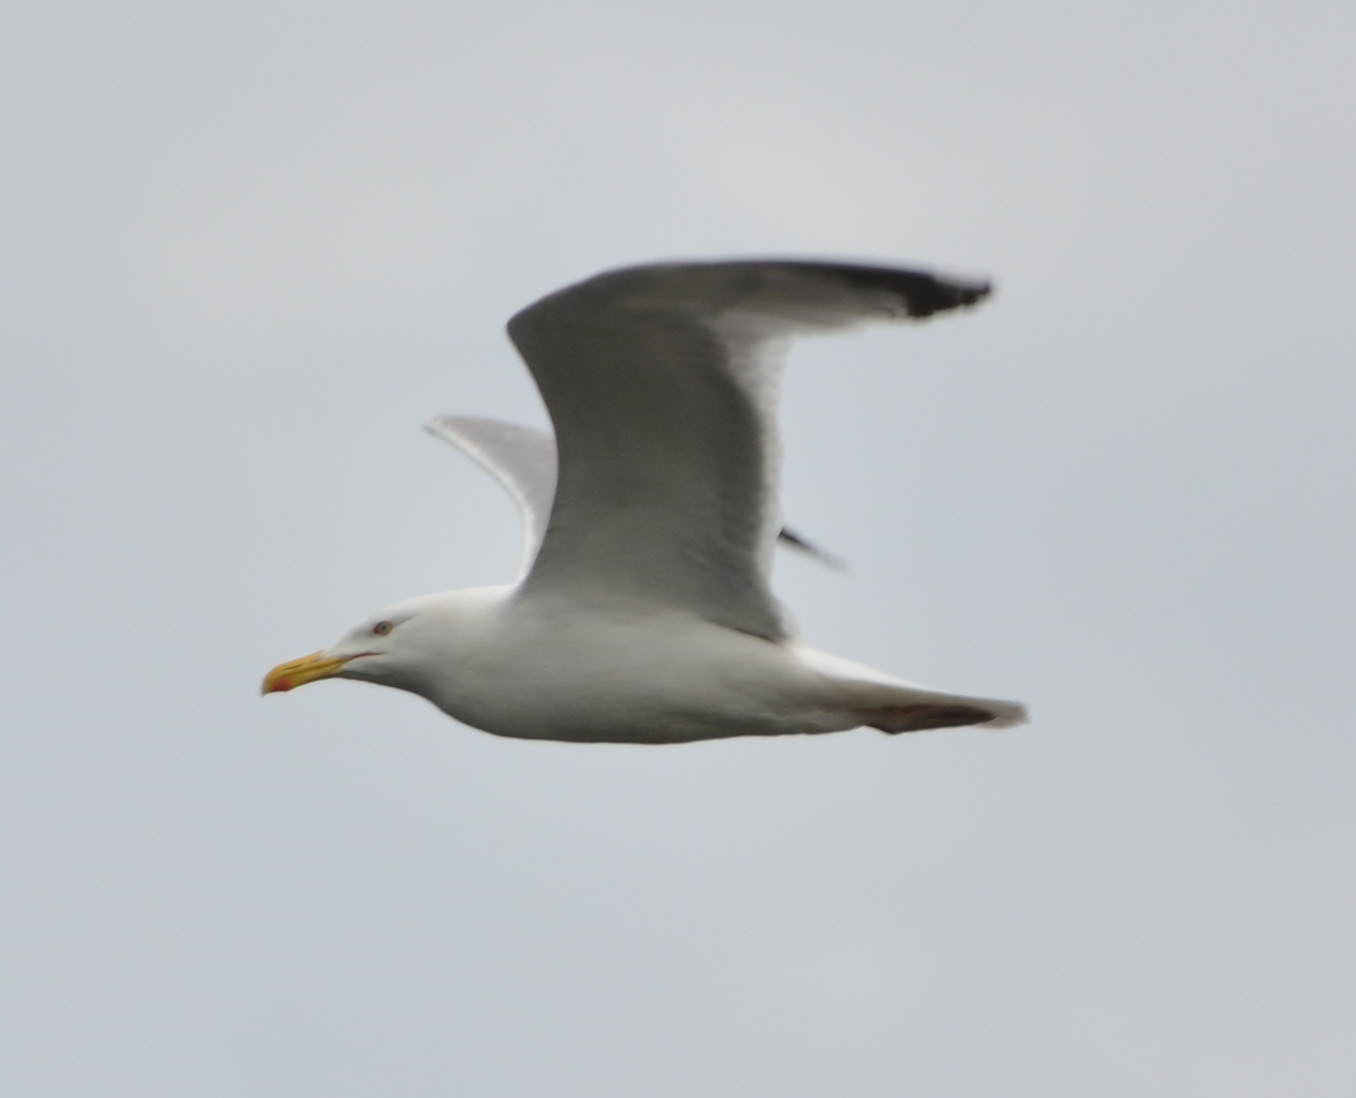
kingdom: Animalia
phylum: Chordata
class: Aves
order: Charadriiformes
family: Laridae
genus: Larus
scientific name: Larus argentatus
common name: Herring gull
